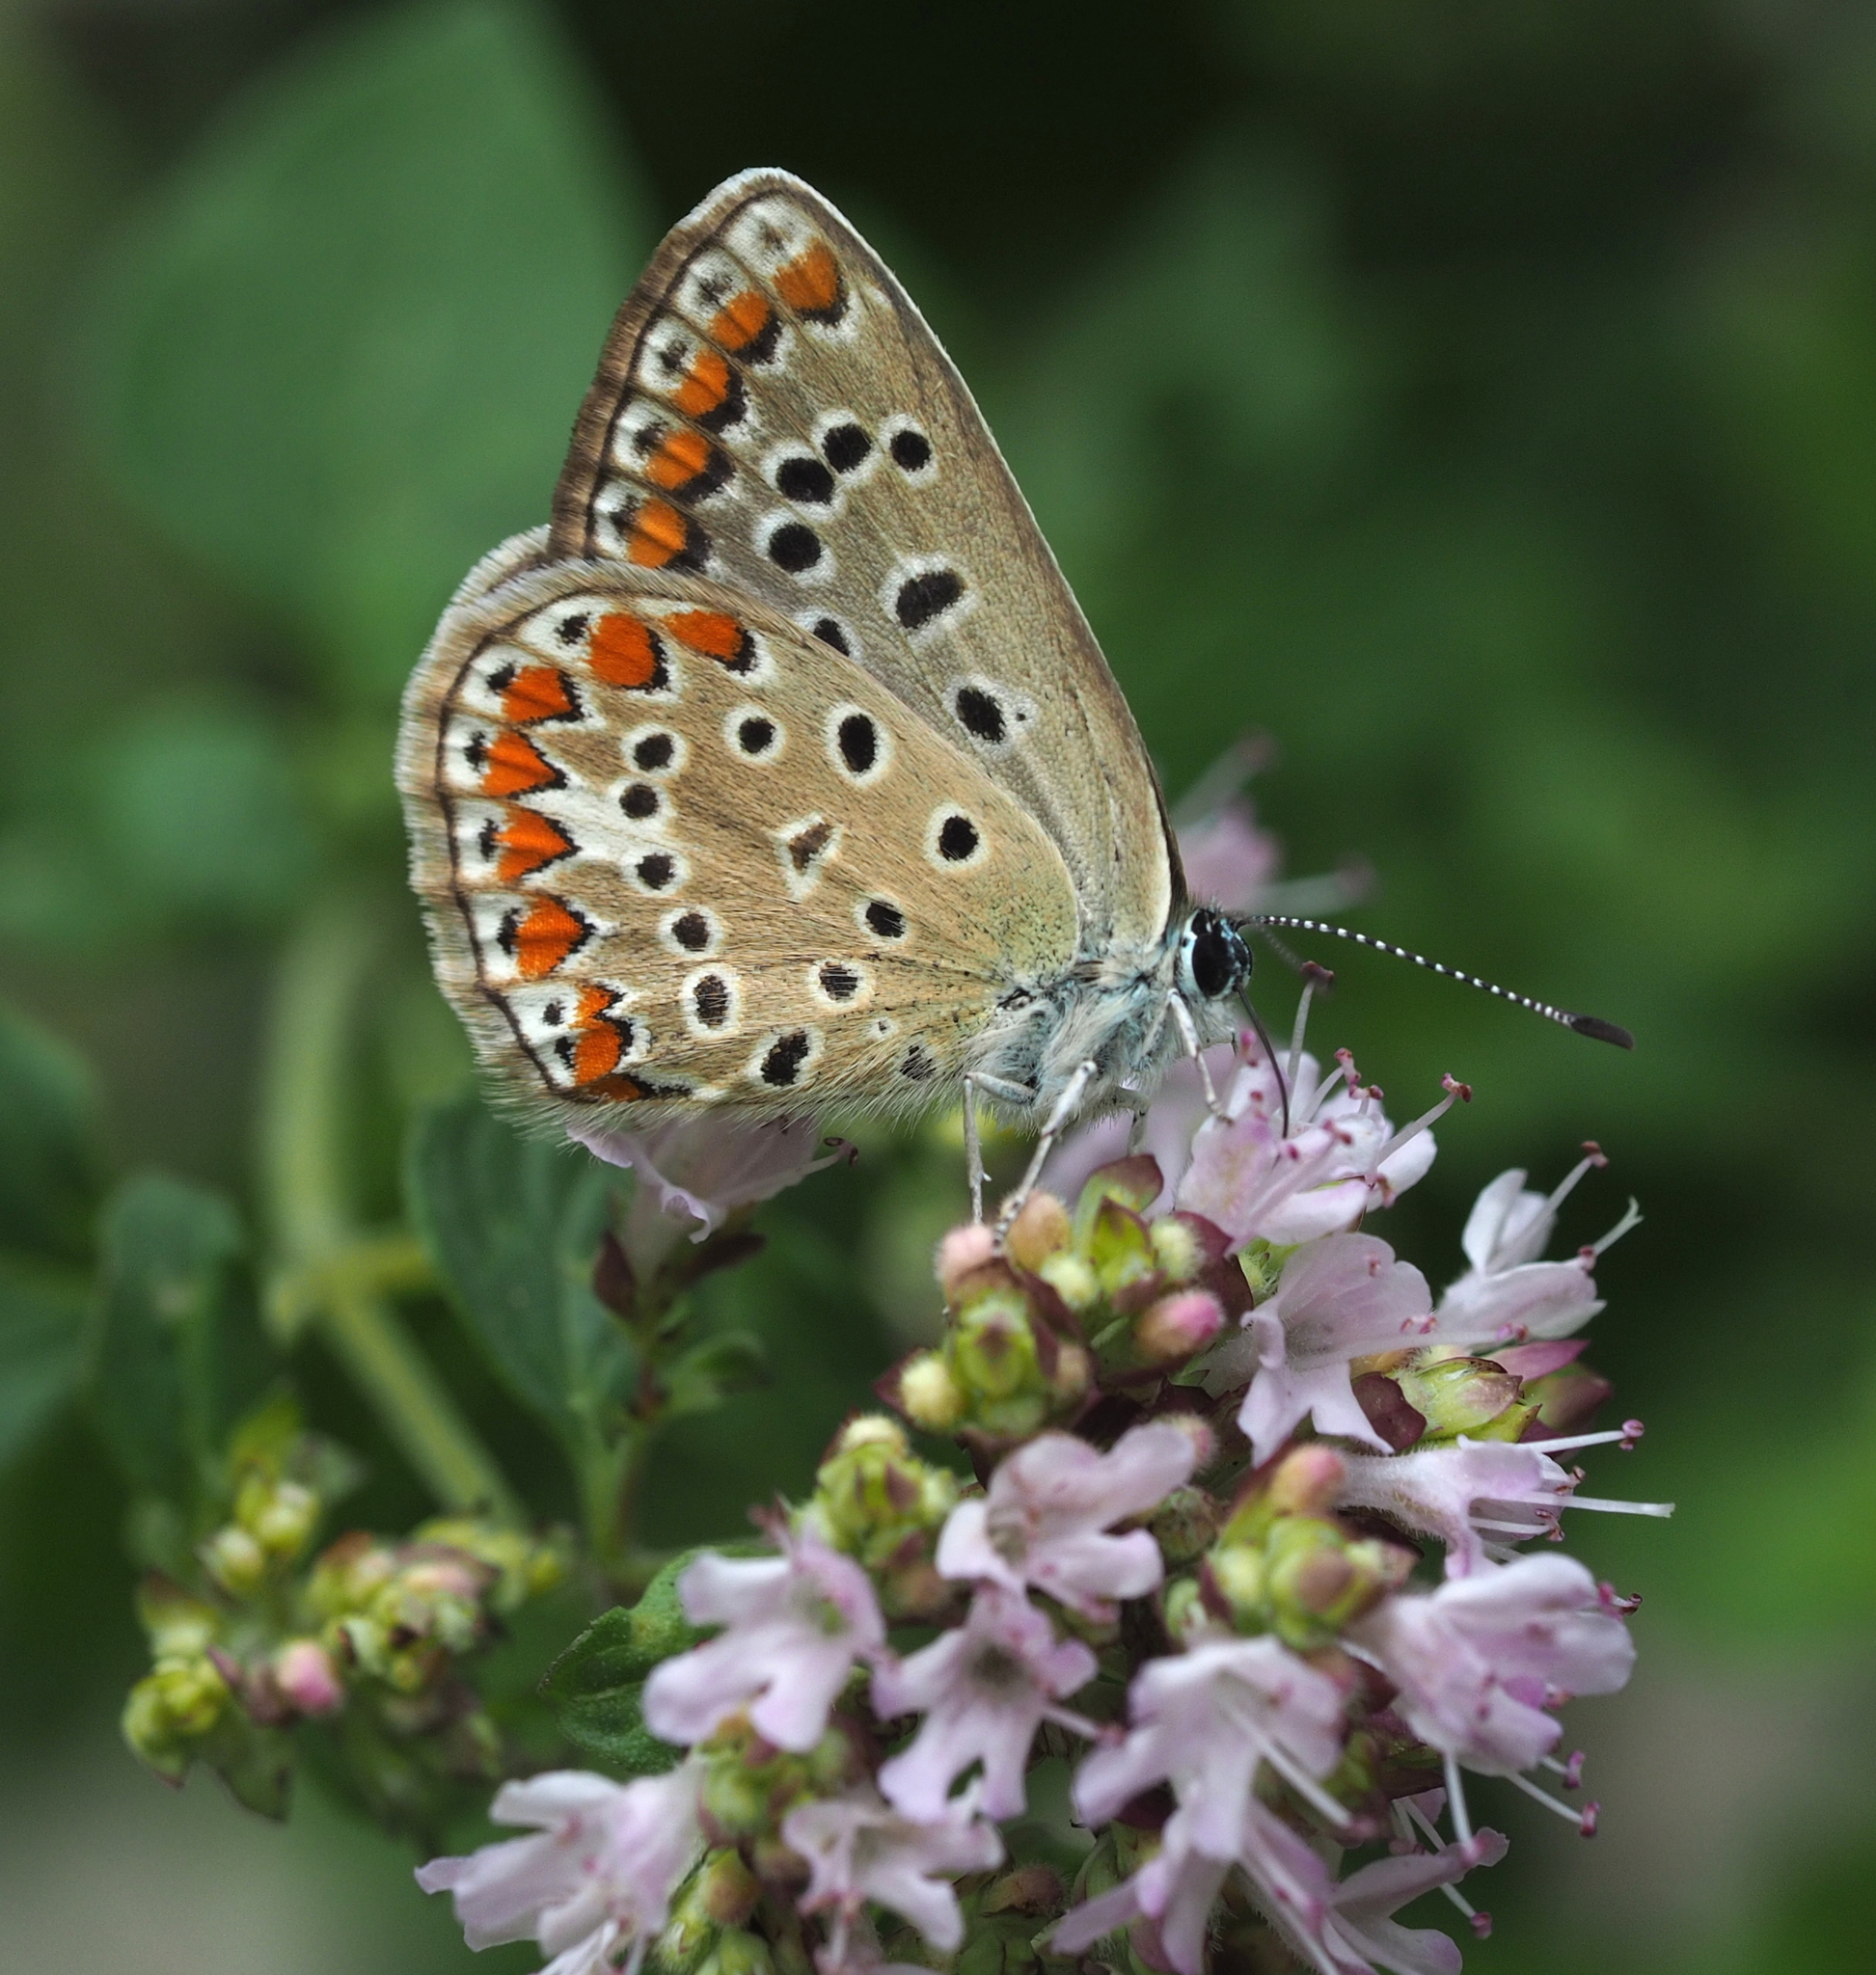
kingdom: Animalia
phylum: Arthropoda
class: Insecta
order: Lepidoptera
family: Lycaenidae
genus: Polyommatus
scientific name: Polyommatus icarus
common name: Common blue
